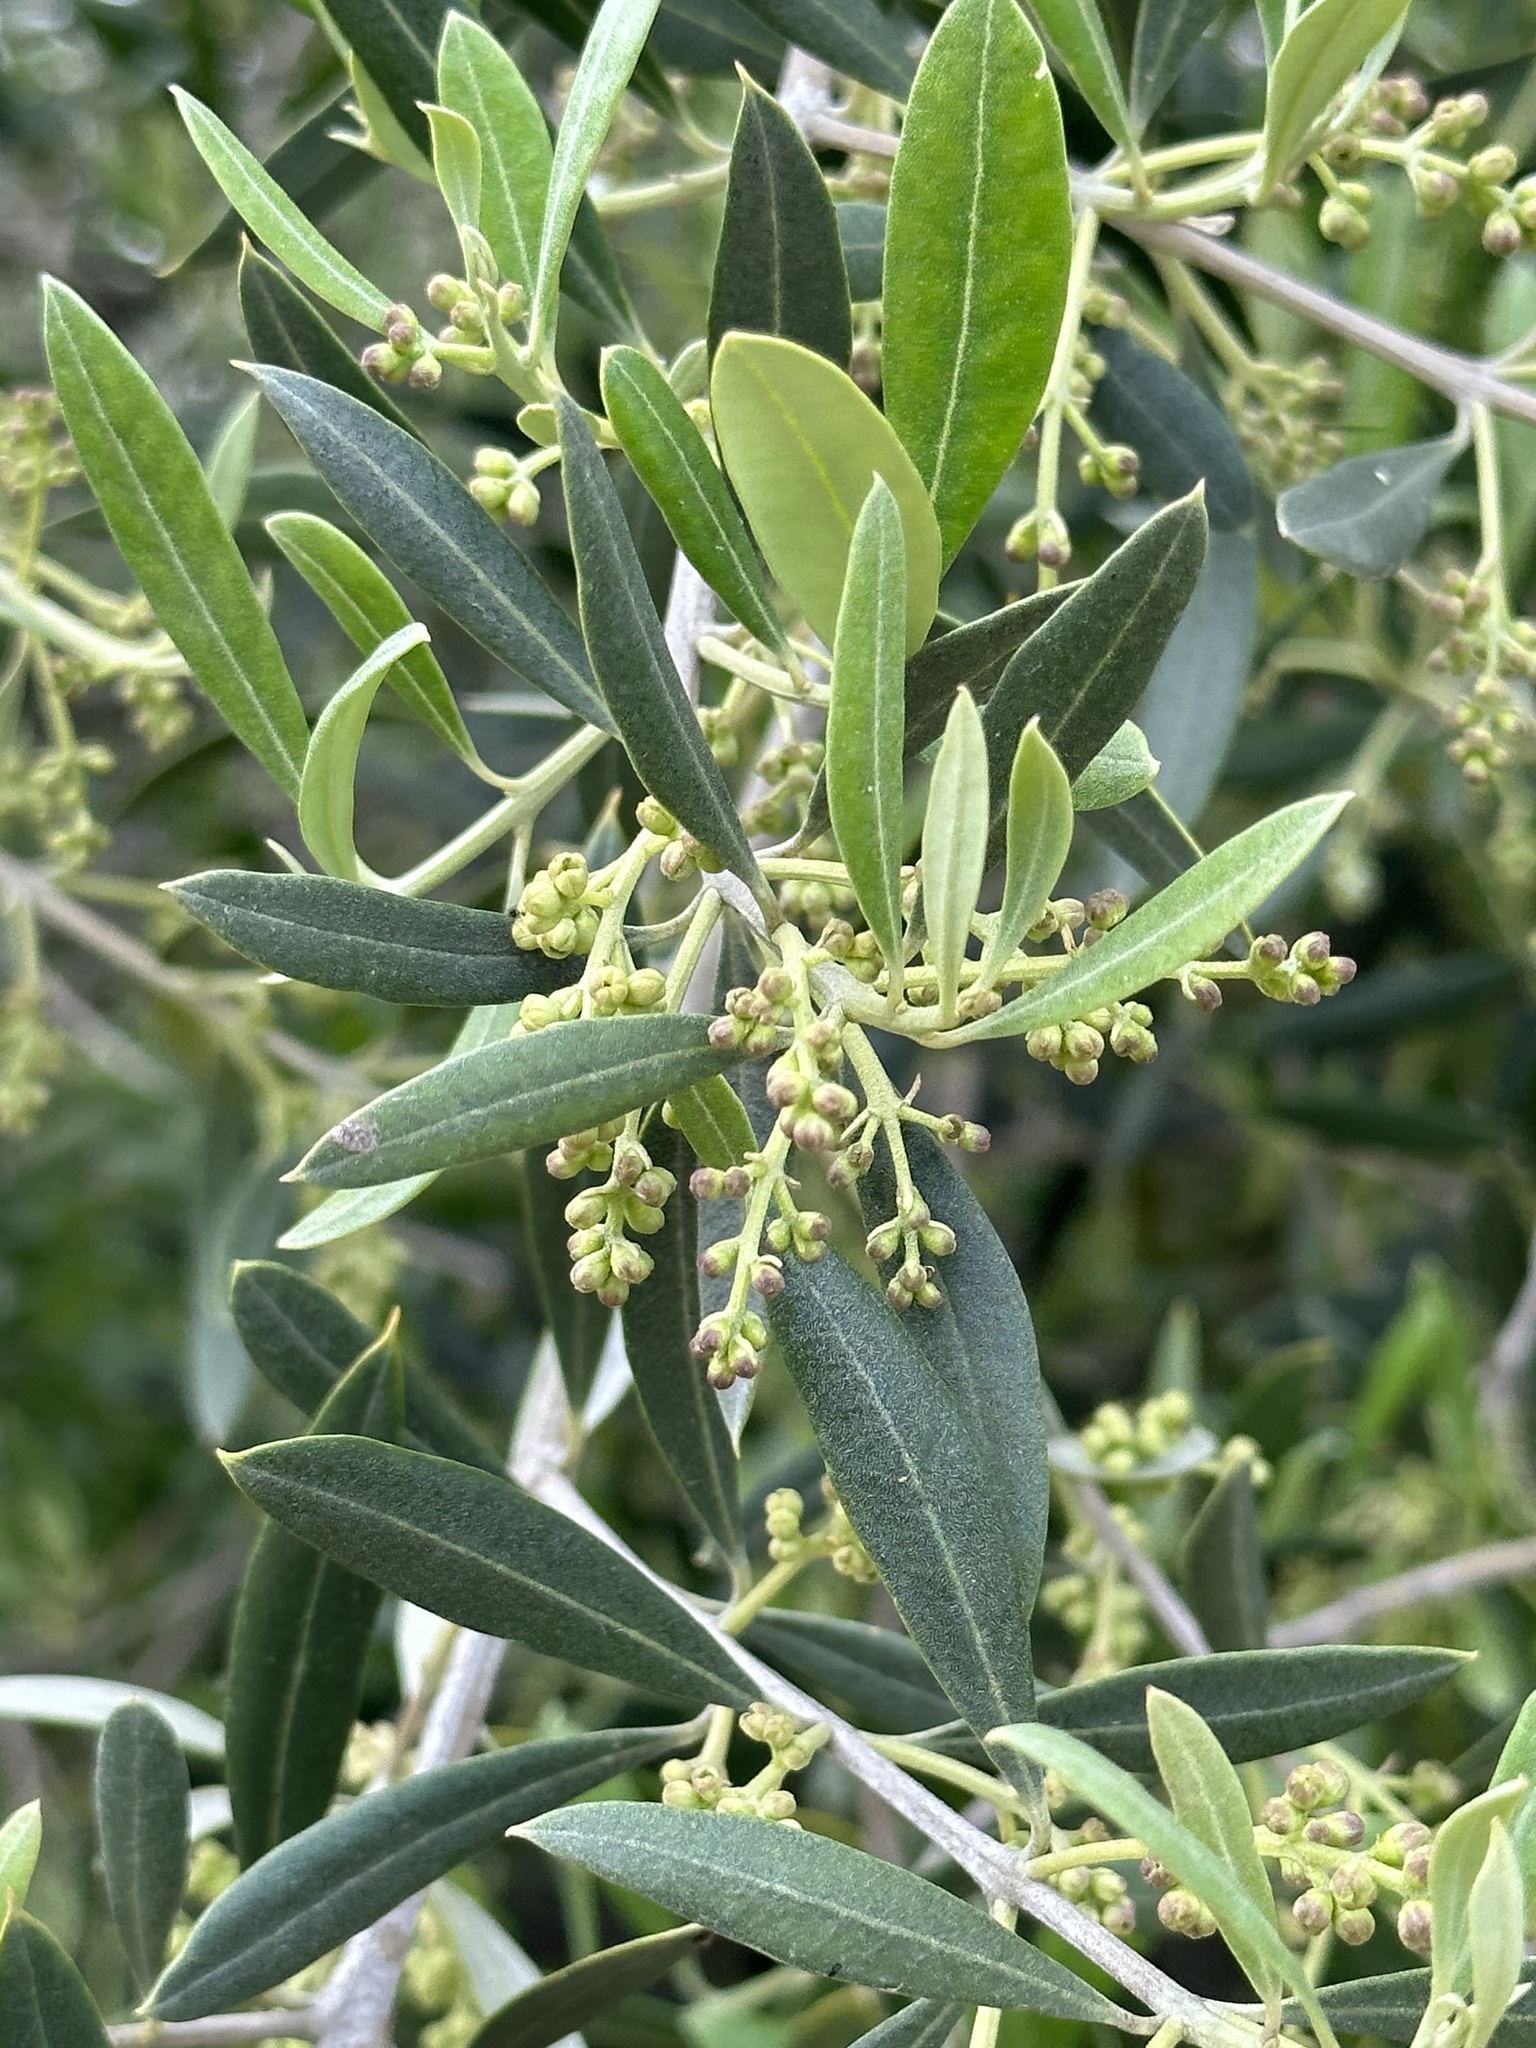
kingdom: Plantae
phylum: Tracheophyta
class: Magnoliopsida
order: Lamiales
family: Oleaceae
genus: Olea
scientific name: Olea europaea
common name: Olive
